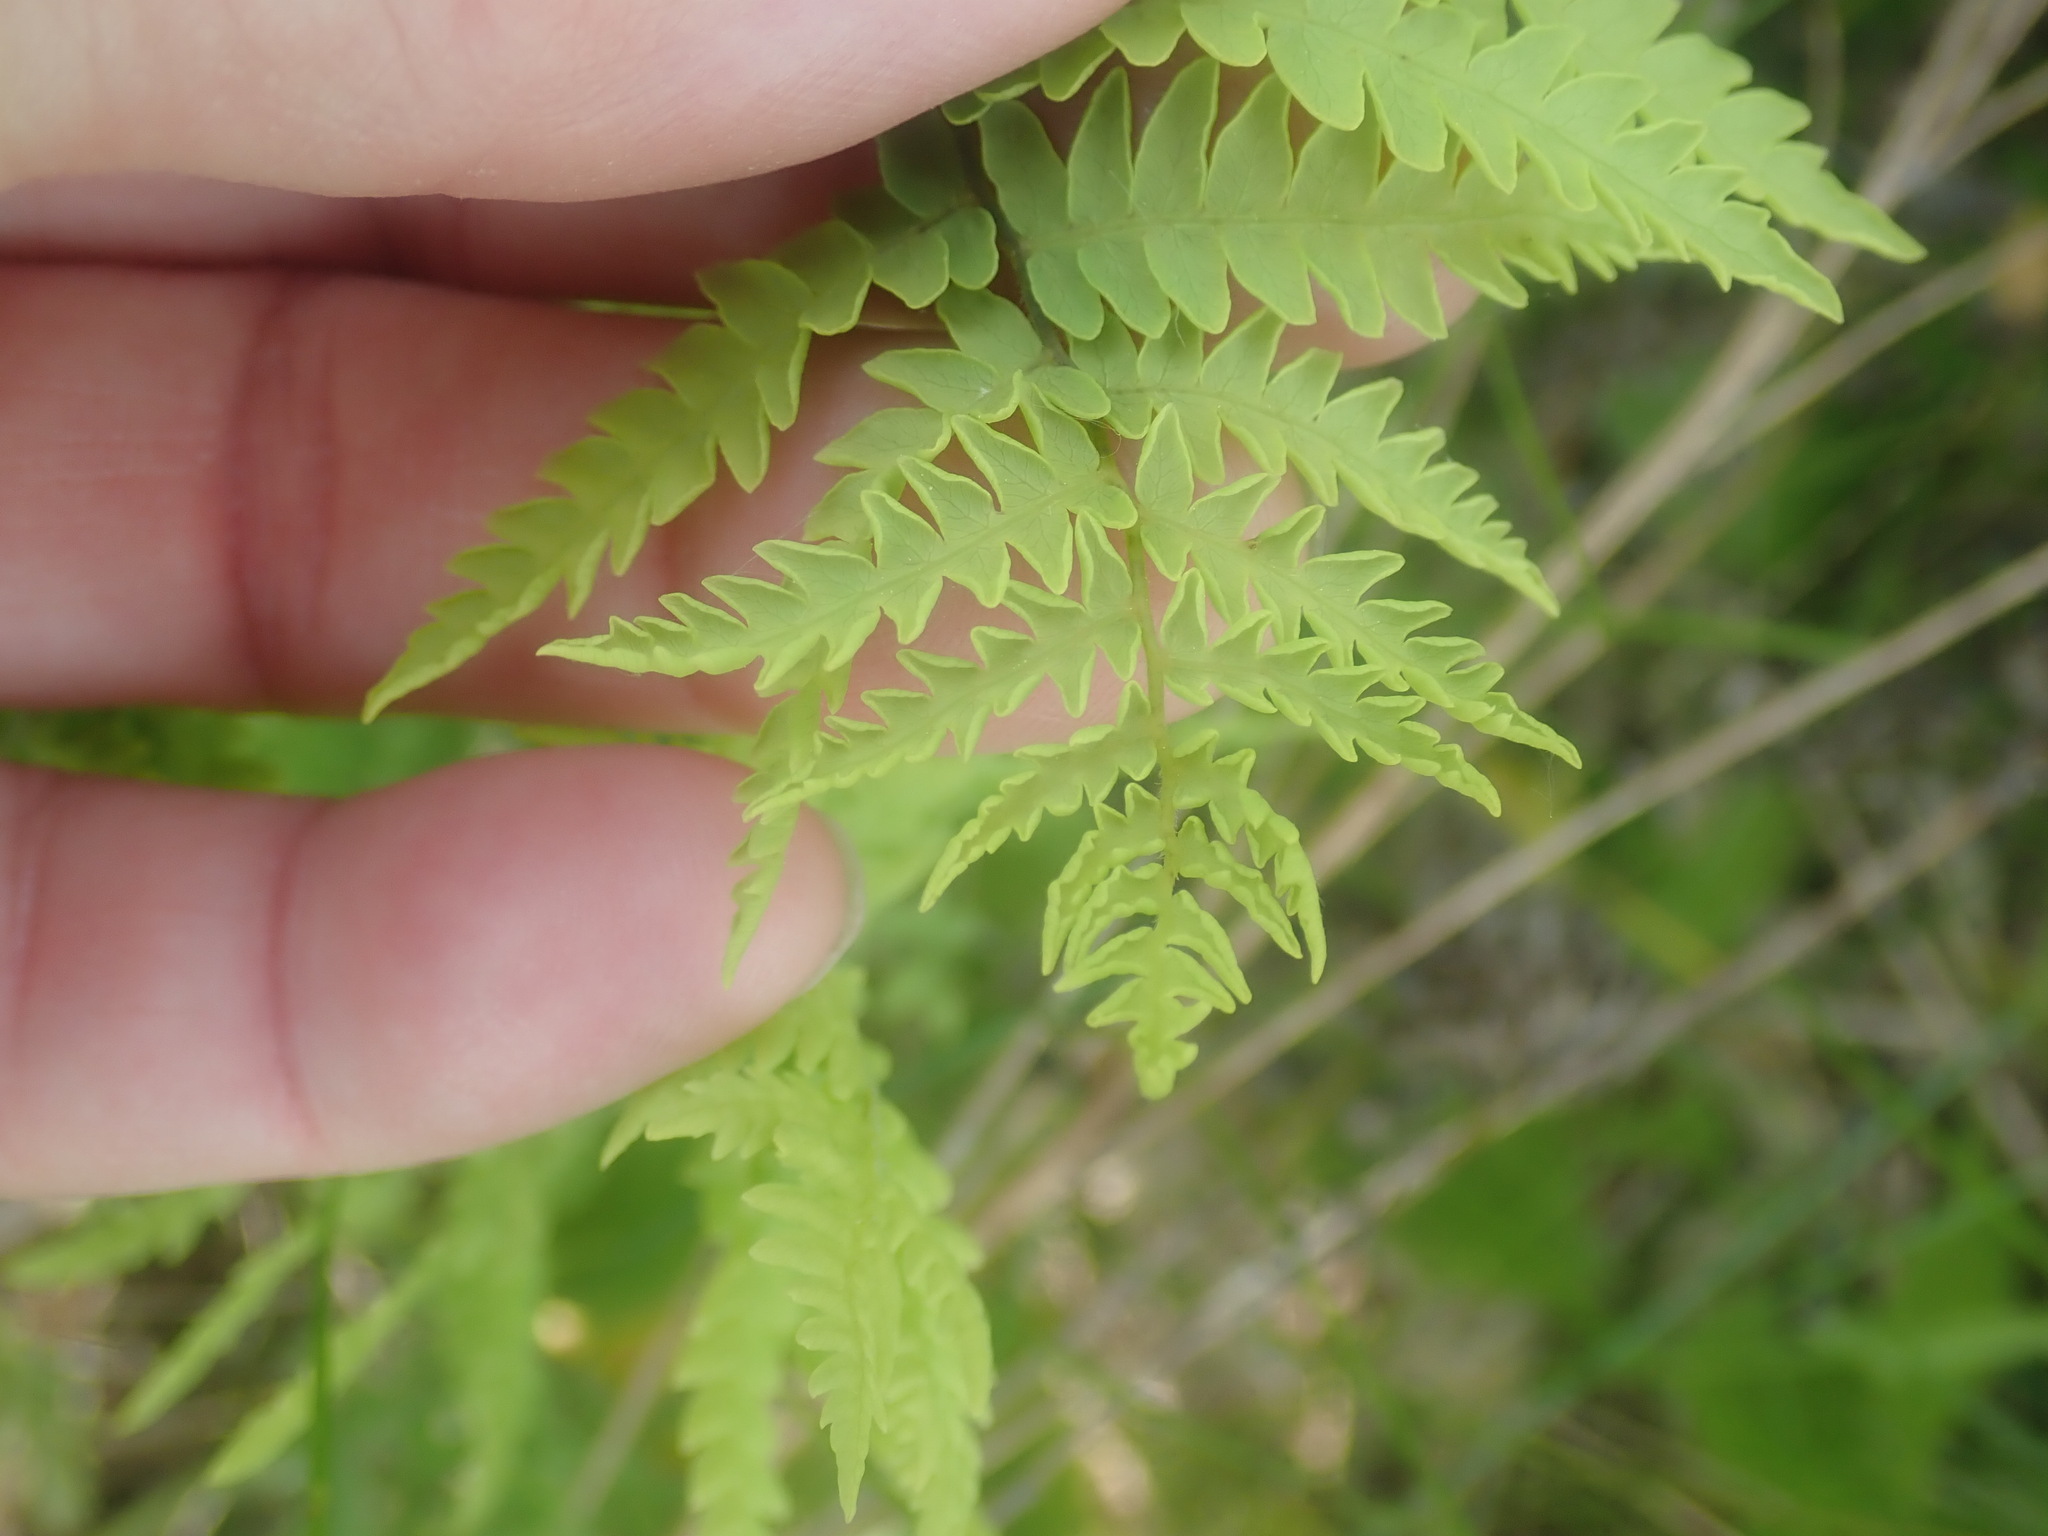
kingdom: Plantae
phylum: Tracheophyta
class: Polypodiopsida
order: Polypodiales
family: Thelypteridaceae
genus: Thelypteris
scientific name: Thelypteris palustris
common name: Marsh fern
